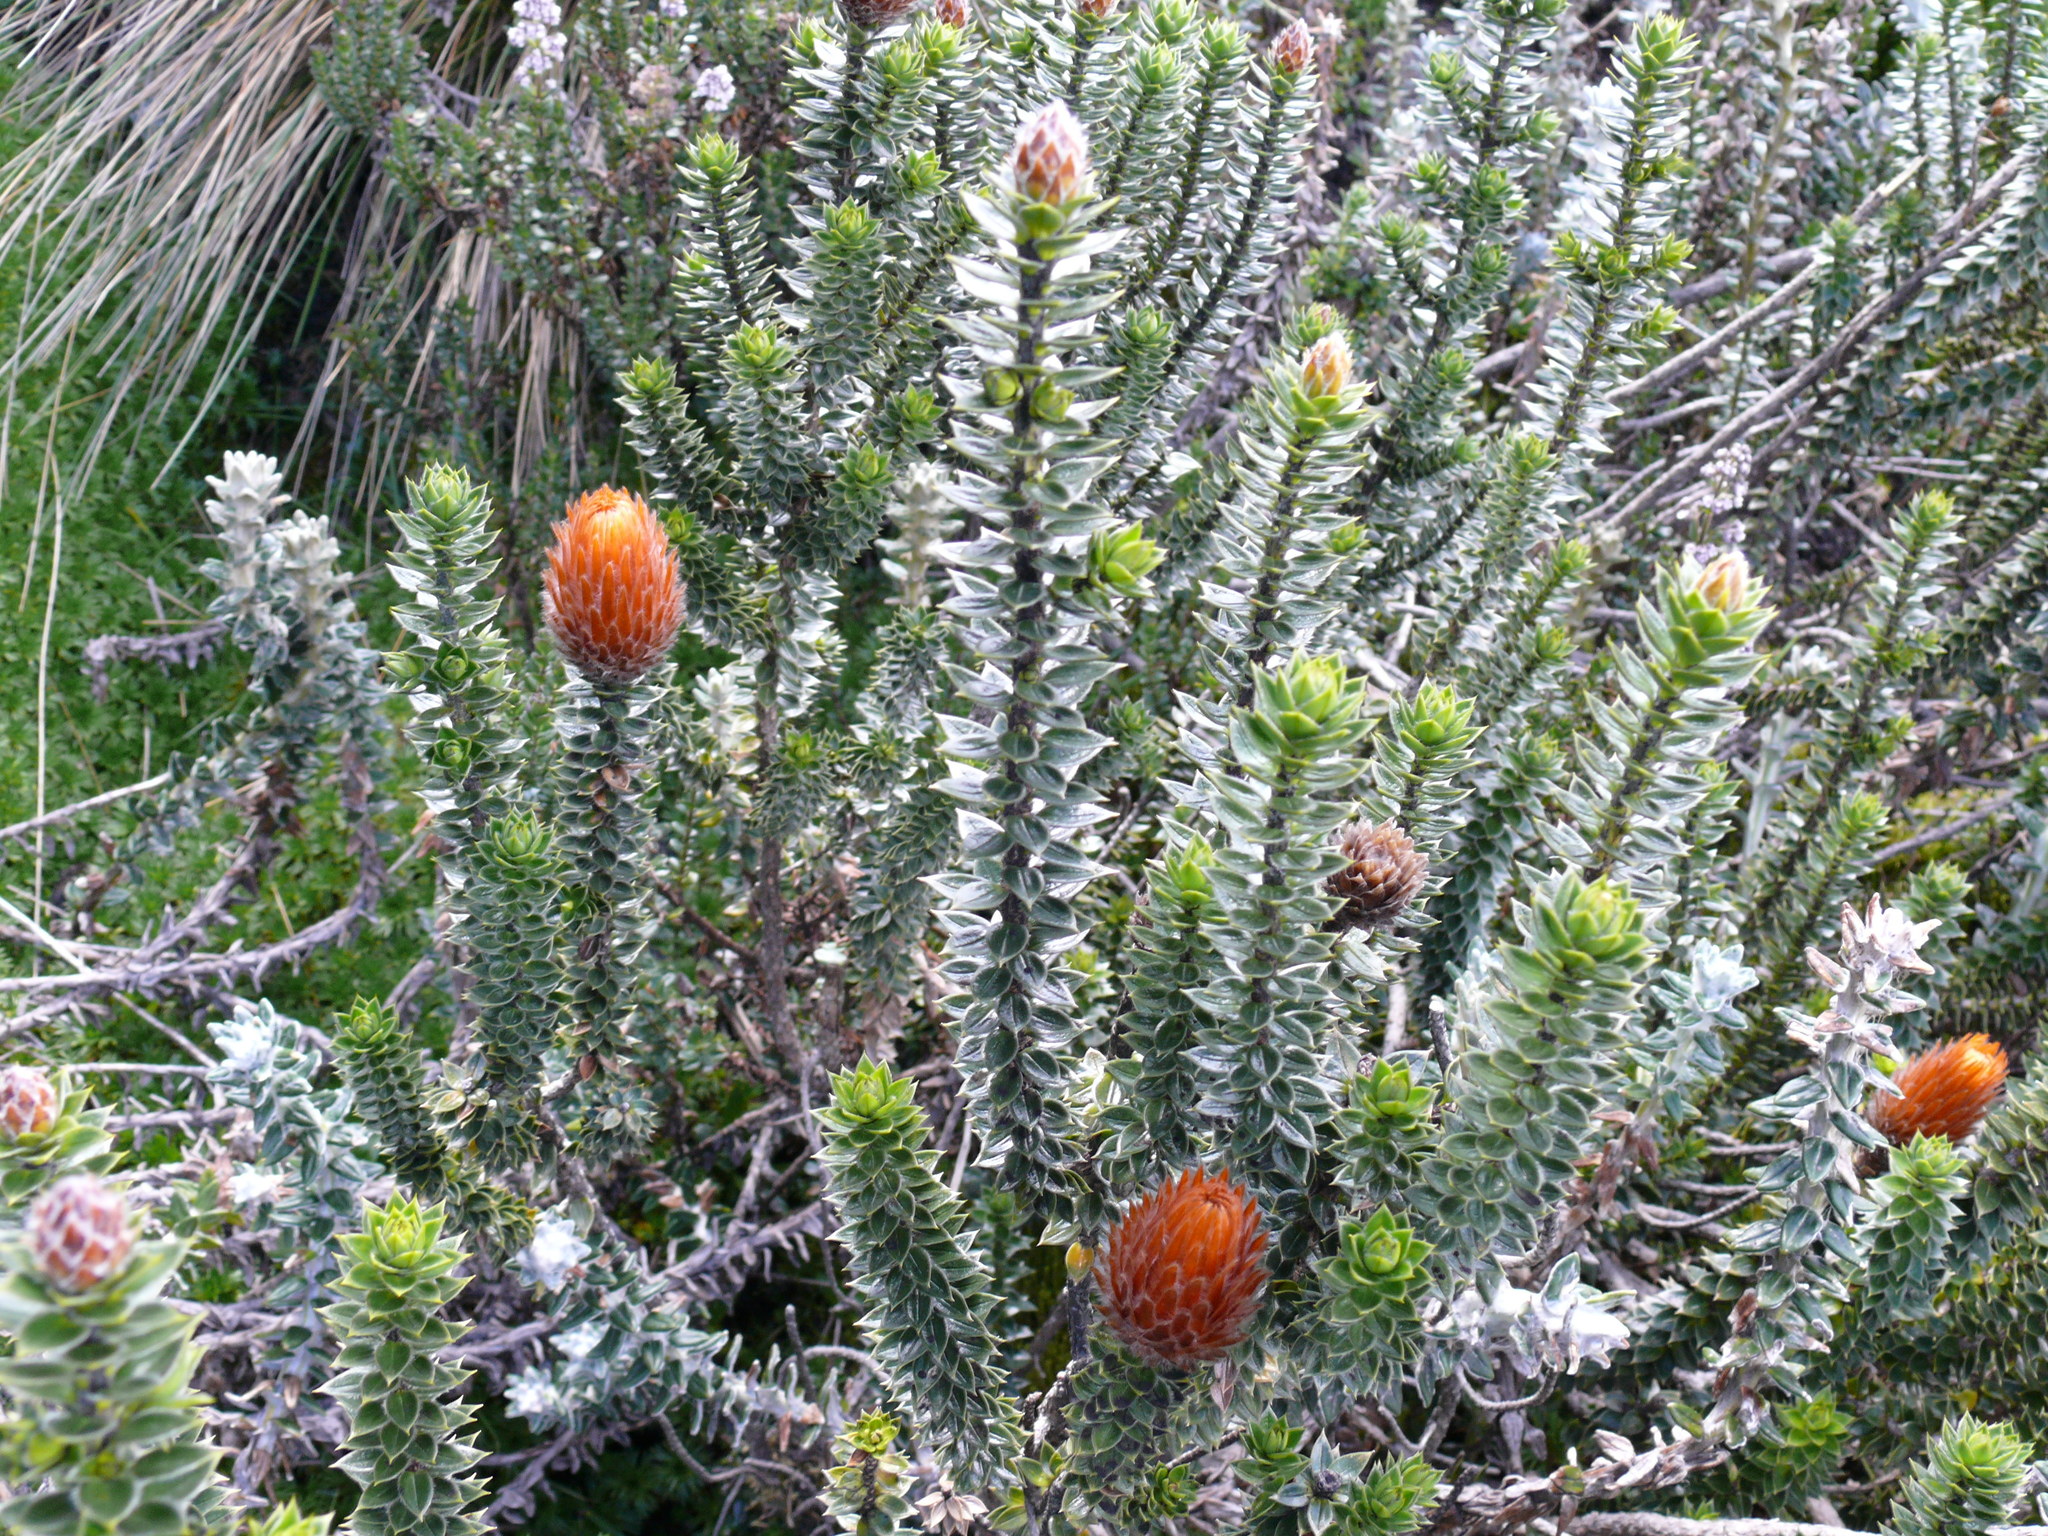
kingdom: Plantae
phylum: Tracheophyta
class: Magnoliopsida
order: Asterales
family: Asteraceae
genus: Chuquiraga
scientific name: Chuquiraga jussieui
